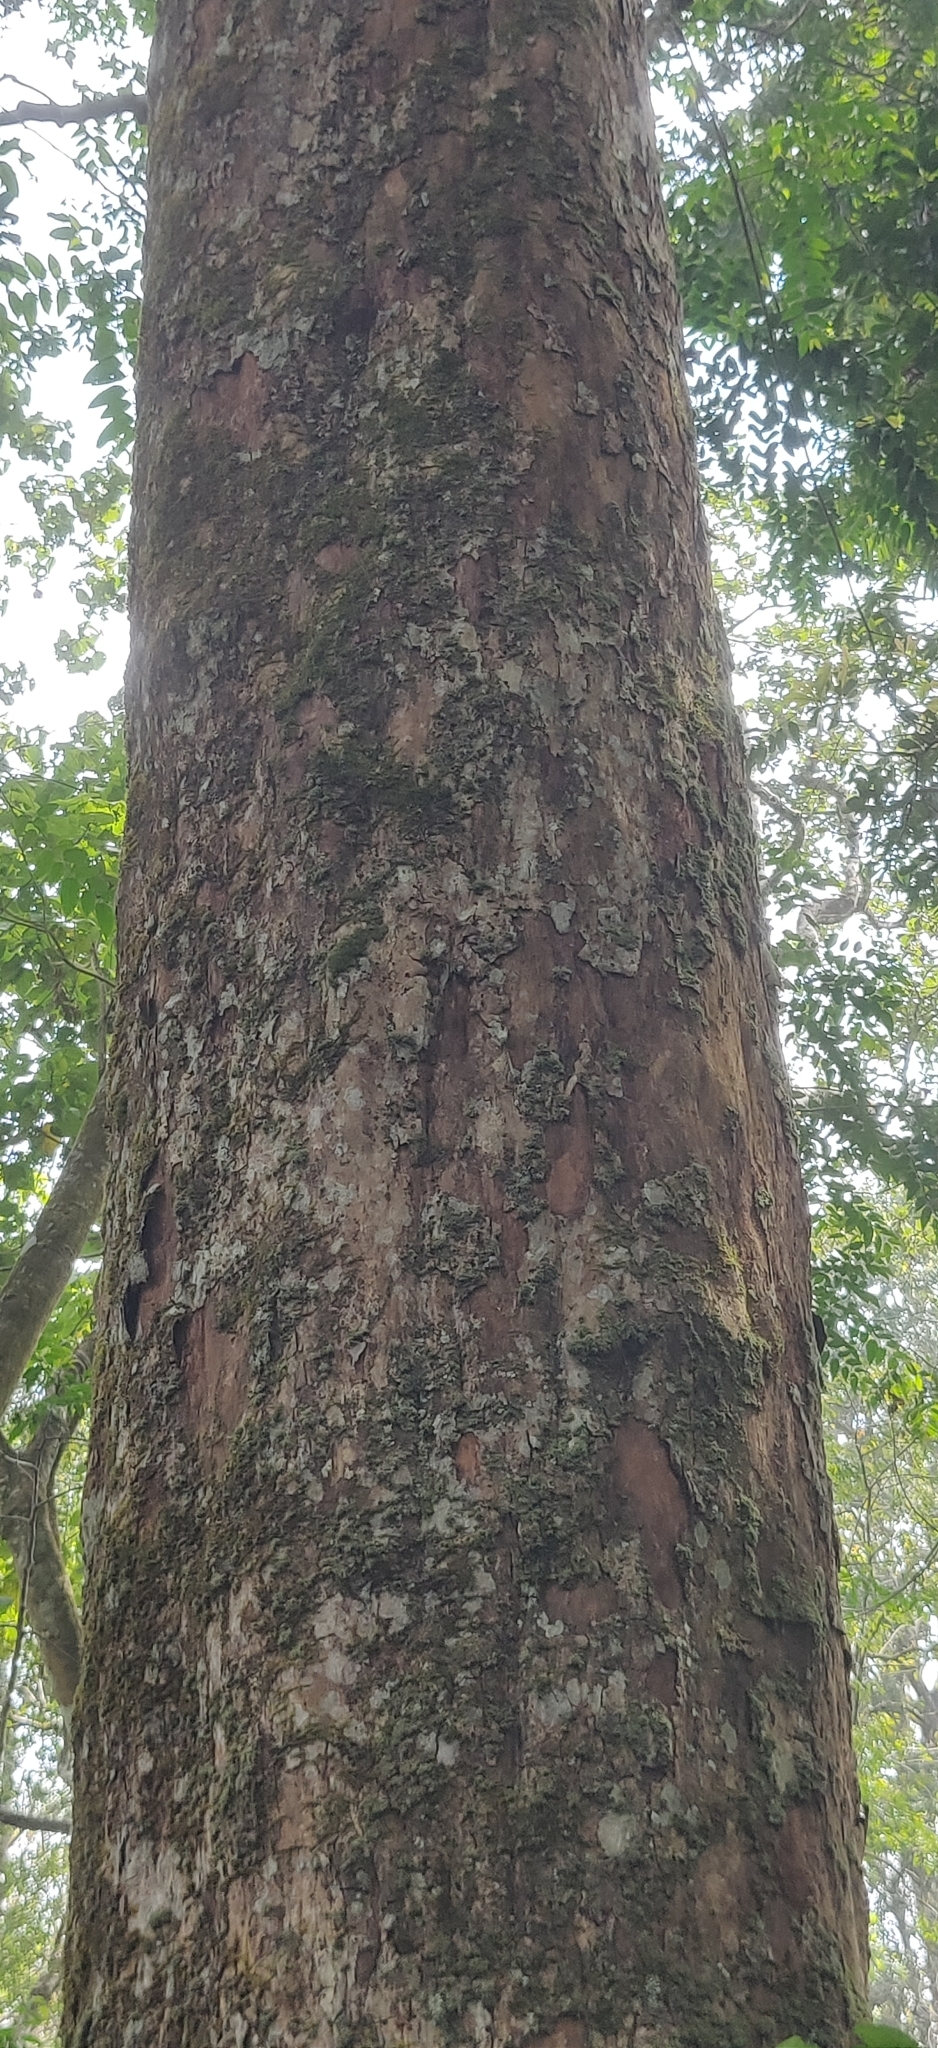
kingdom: Plantae
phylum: Tracheophyta
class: Magnoliopsida
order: Malpighiales
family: Calophyllaceae
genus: Mesua
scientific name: Mesua ferrea
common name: Mesua
